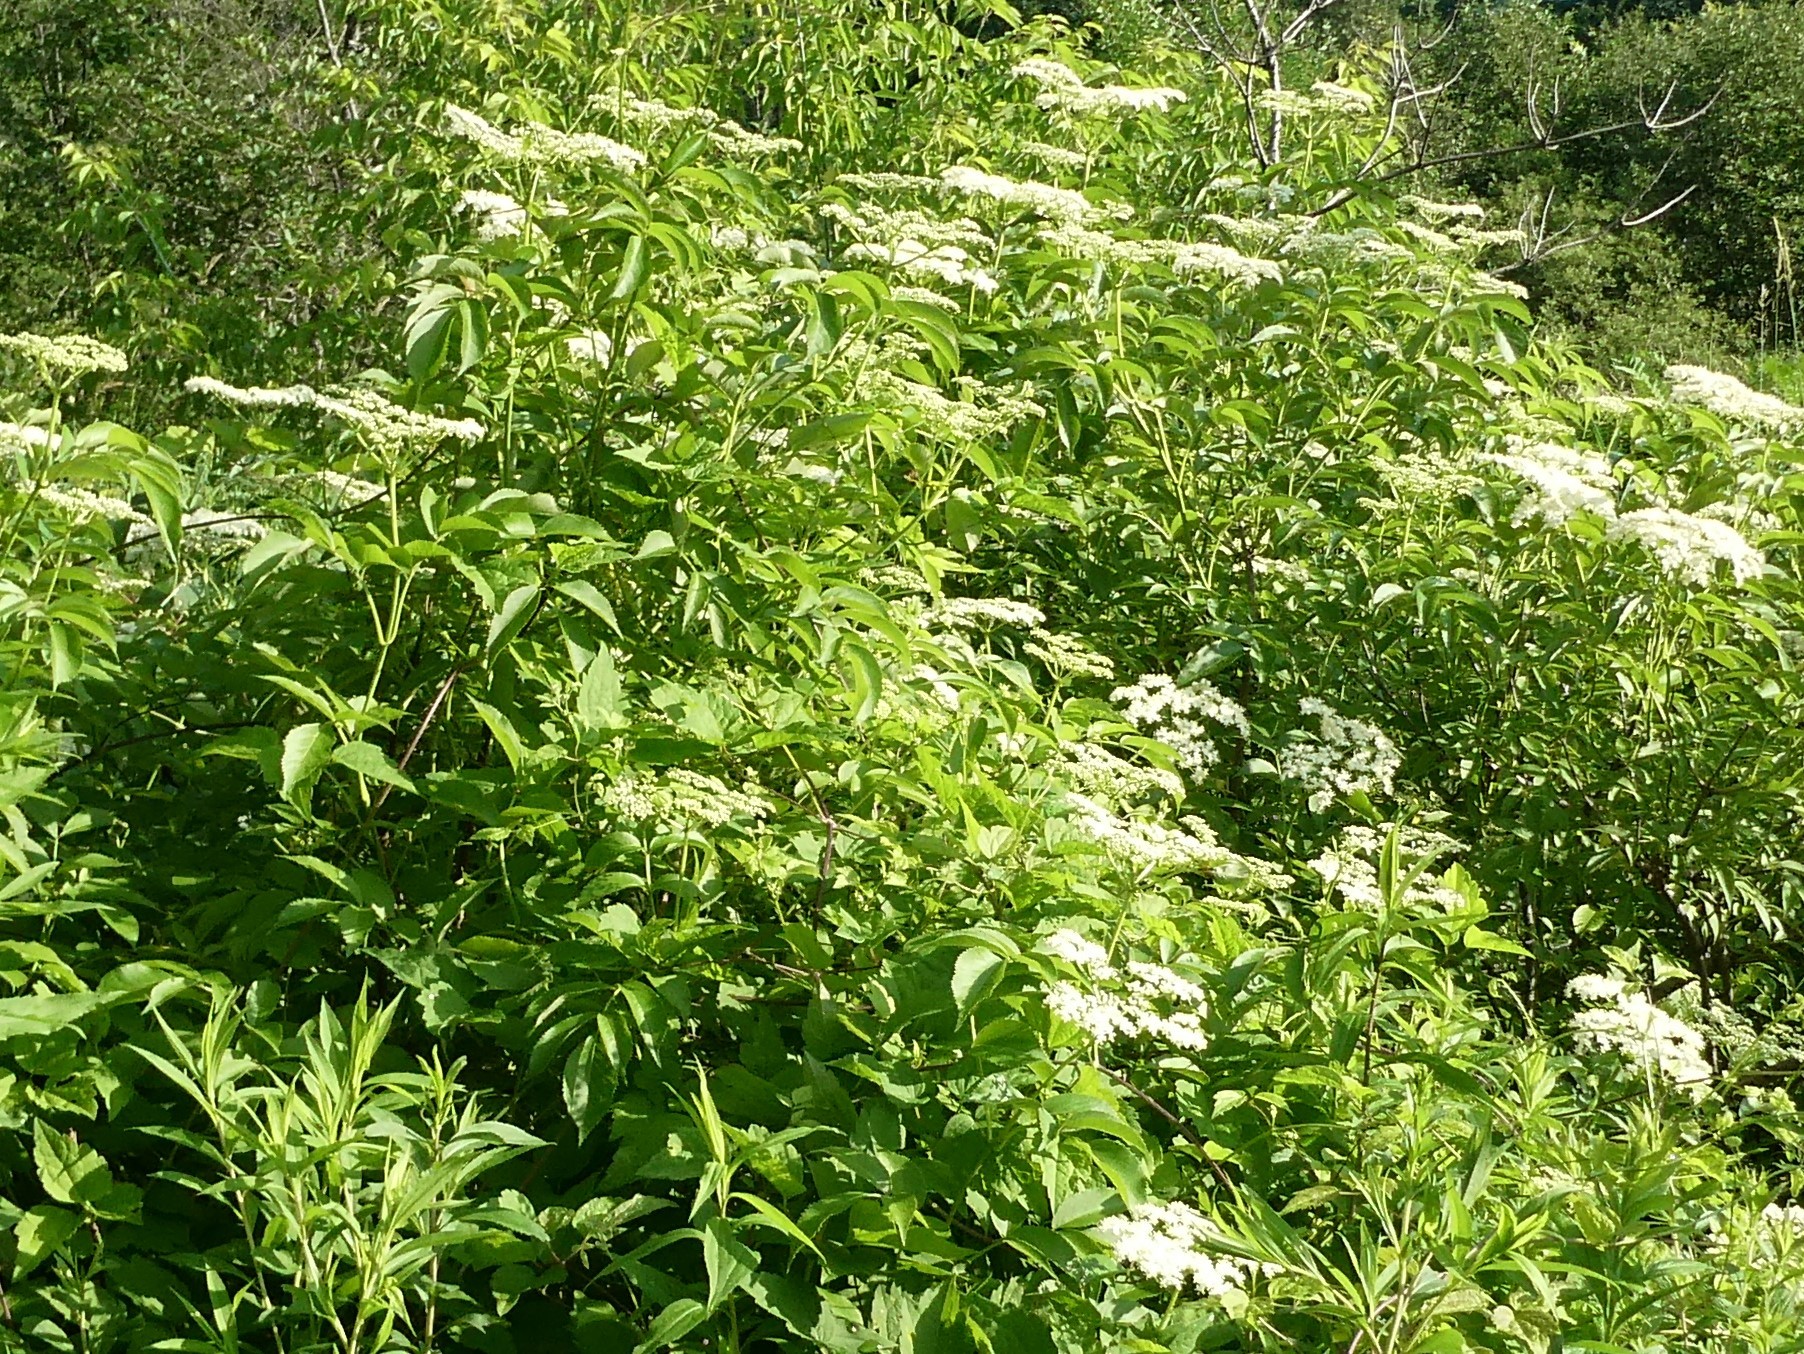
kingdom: Plantae
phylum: Tracheophyta
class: Magnoliopsida
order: Dipsacales
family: Viburnaceae
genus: Sambucus
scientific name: Sambucus canadensis
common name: American elder
